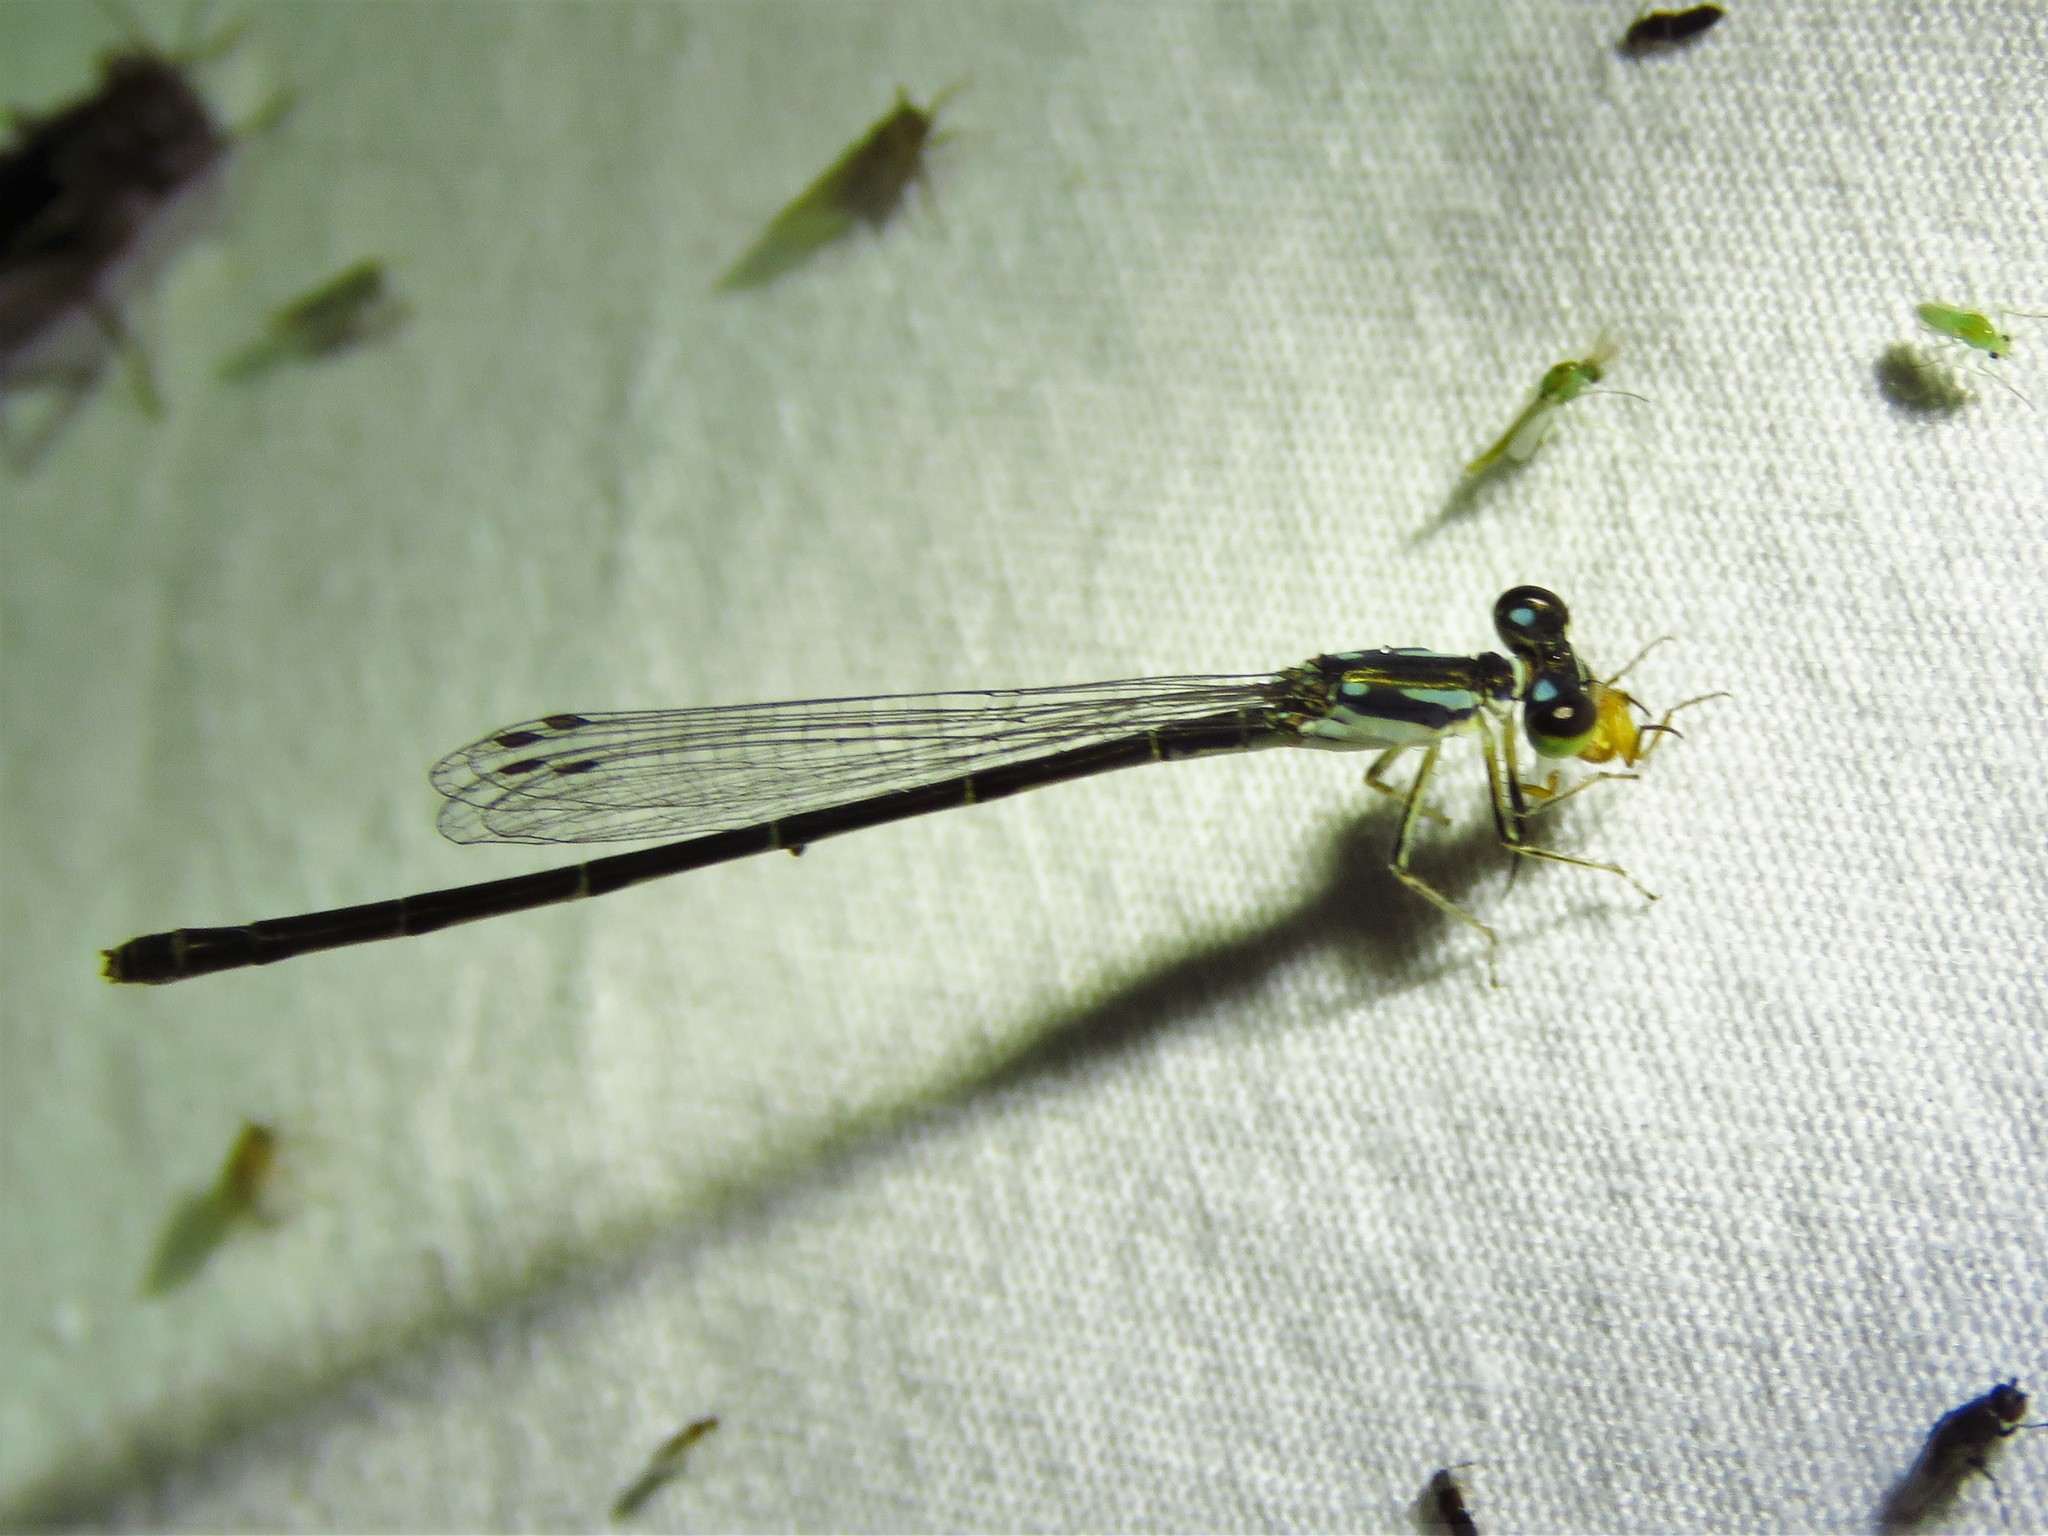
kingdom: Animalia
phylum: Arthropoda
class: Insecta
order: Odonata
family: Coenagrionidae
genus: Ischnura
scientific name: Ischnura posita
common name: Fragile forktail
